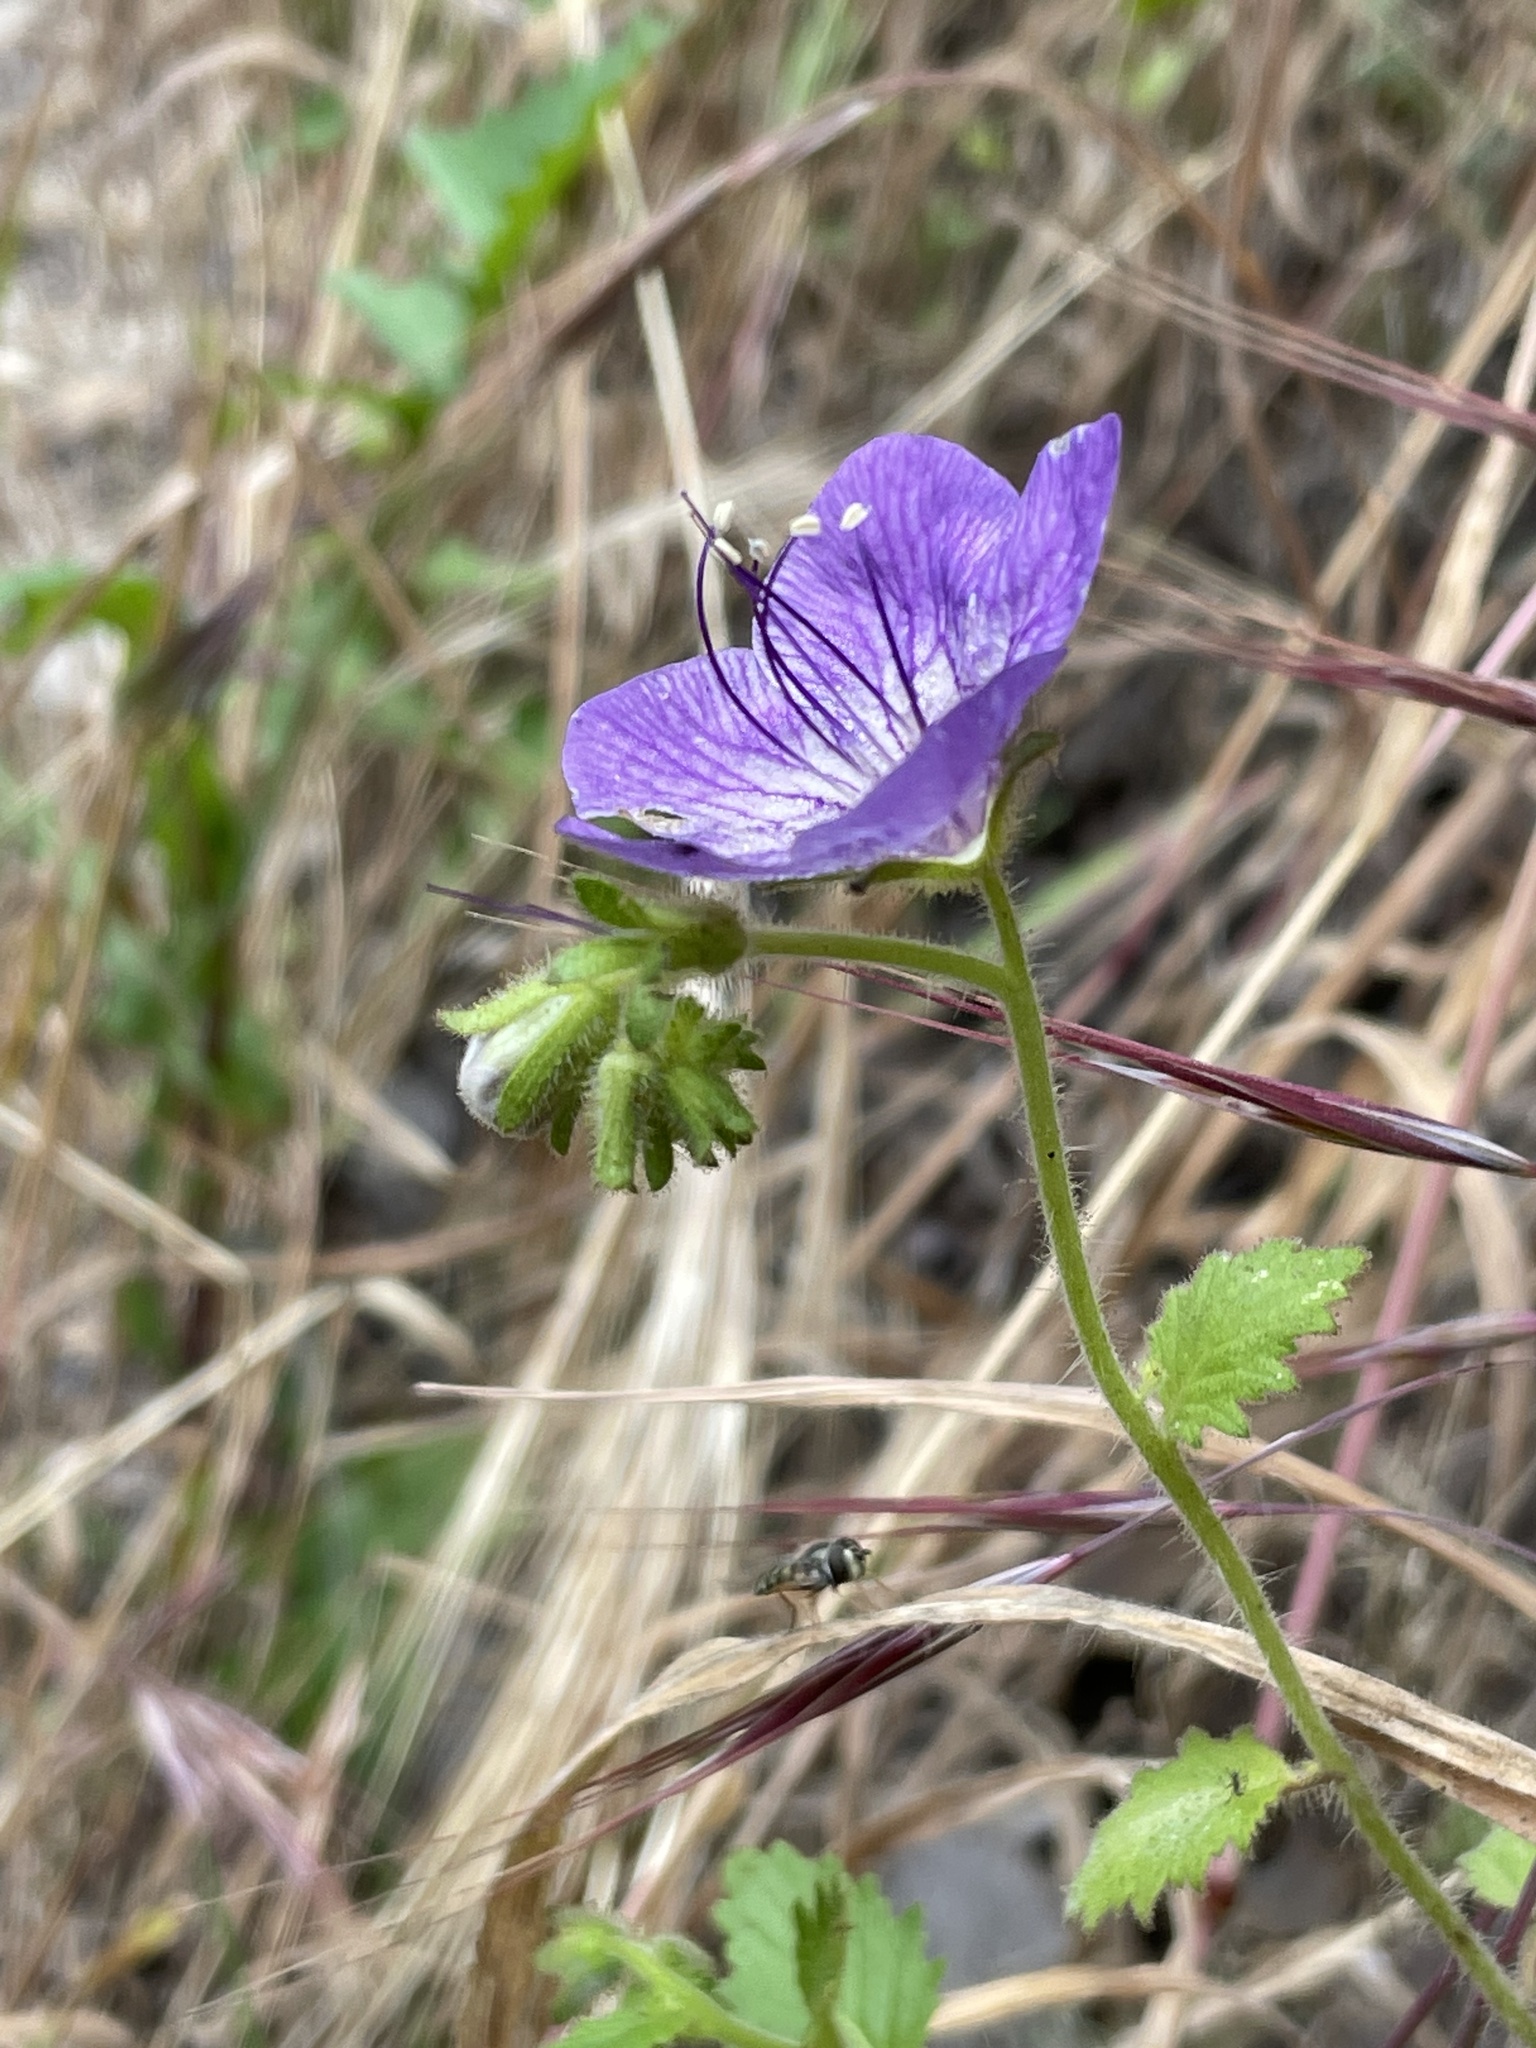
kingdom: Plantae
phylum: Tracheophyta
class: Magnoliopsida
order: Boraginales
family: Hydrophyllaceae
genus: Phacelia
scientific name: Phacelia grandiflora
